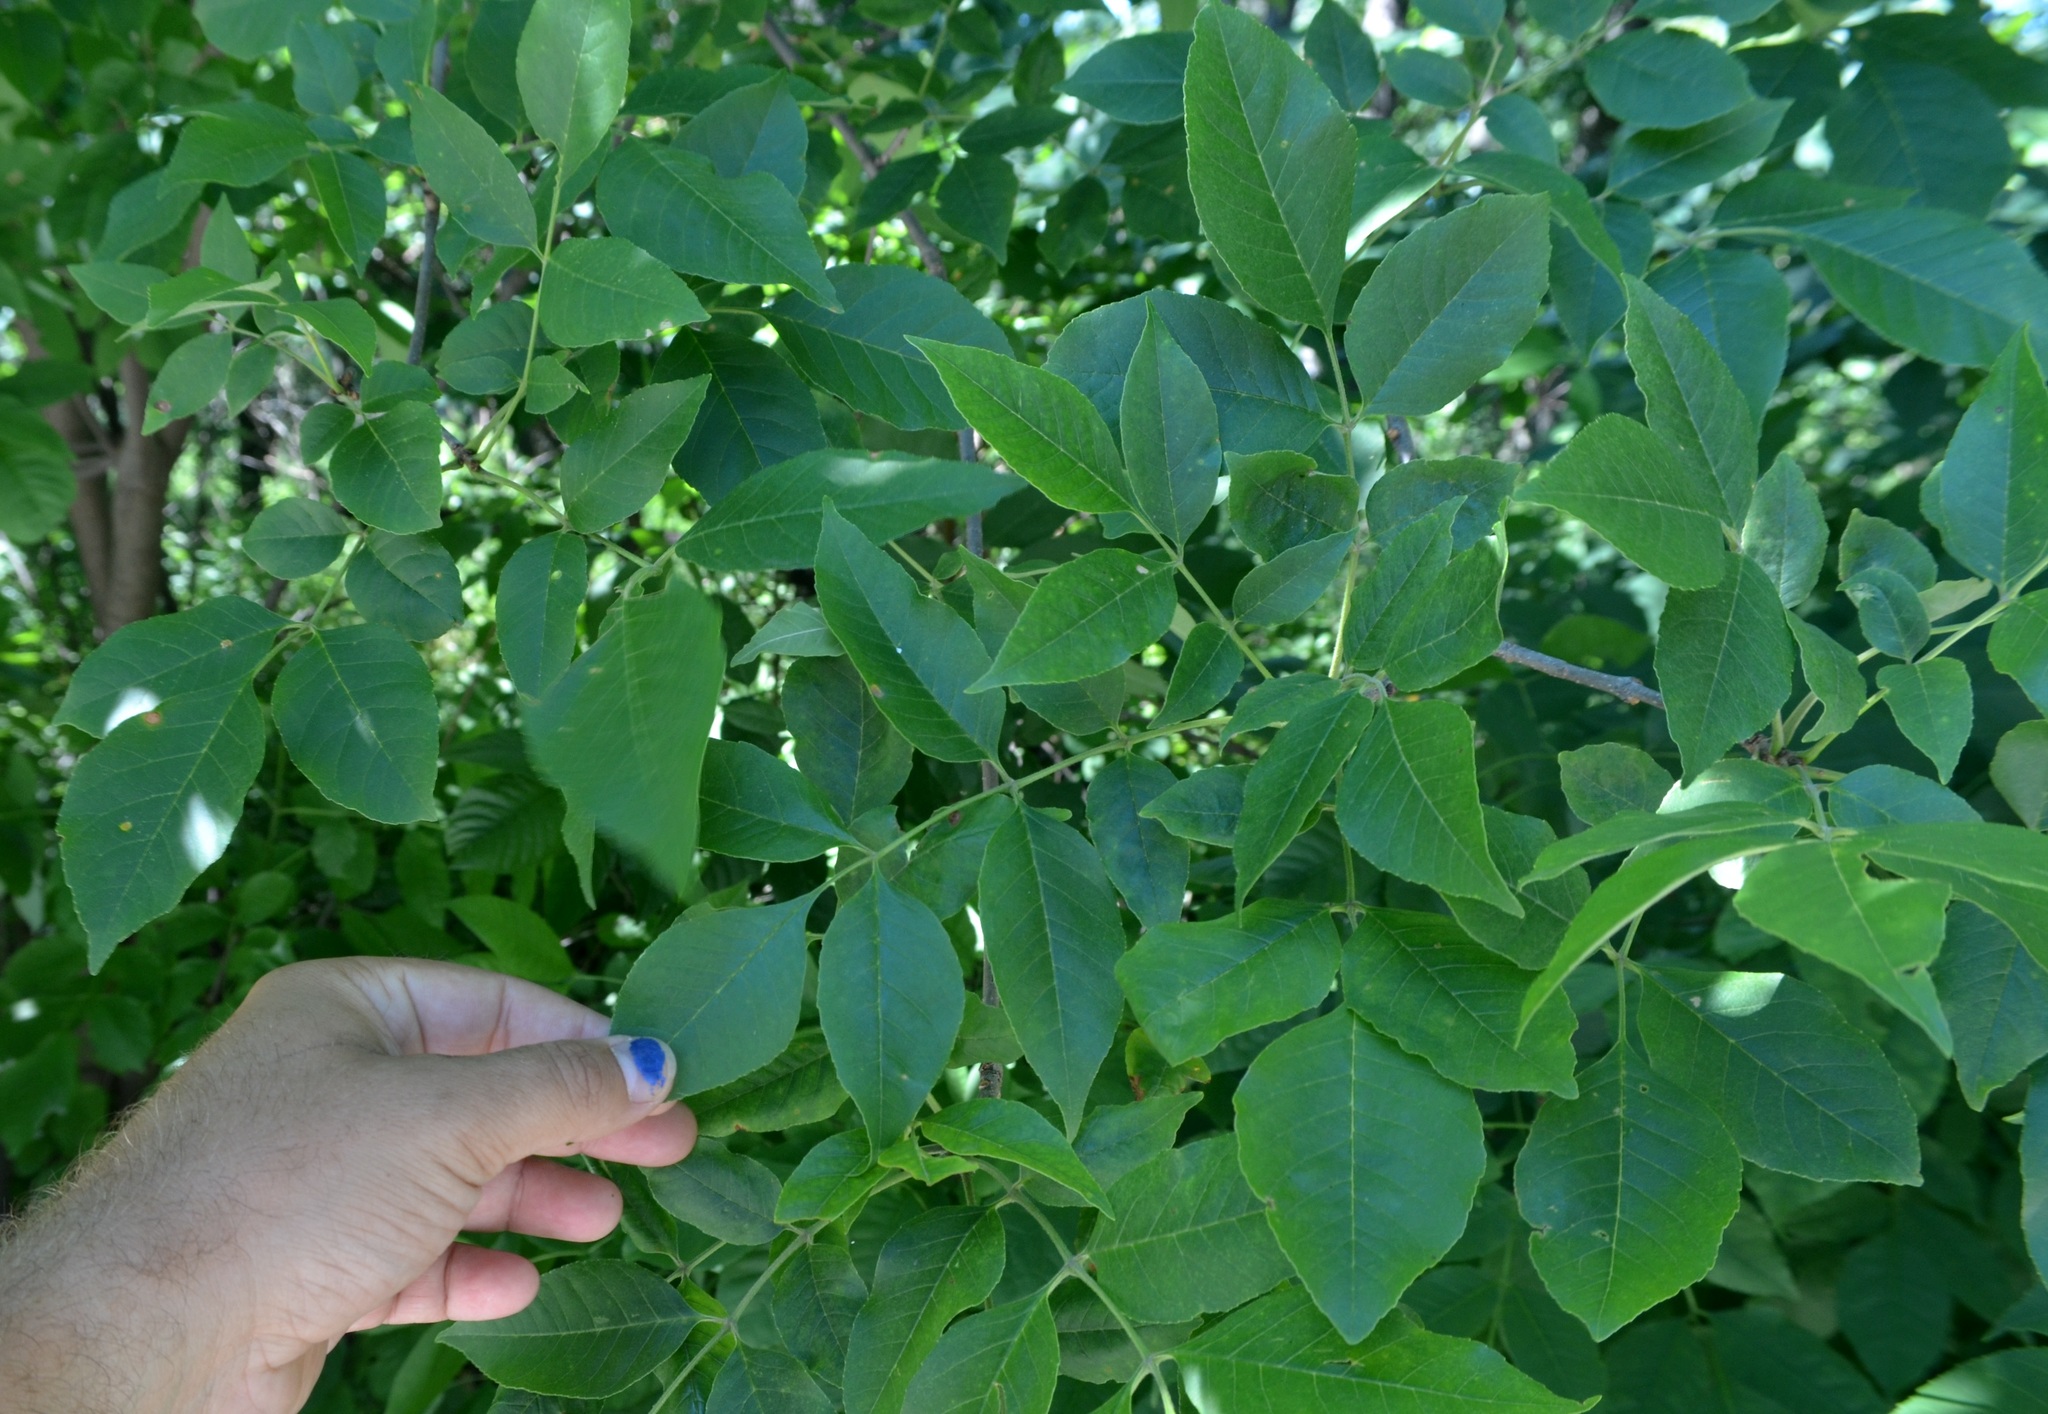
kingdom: Plantae
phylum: Tracheophyta
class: Magnoliopsida
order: Lamiales
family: Oleaceae
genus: Fraxinus
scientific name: Fraxinus americana
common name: White ash
